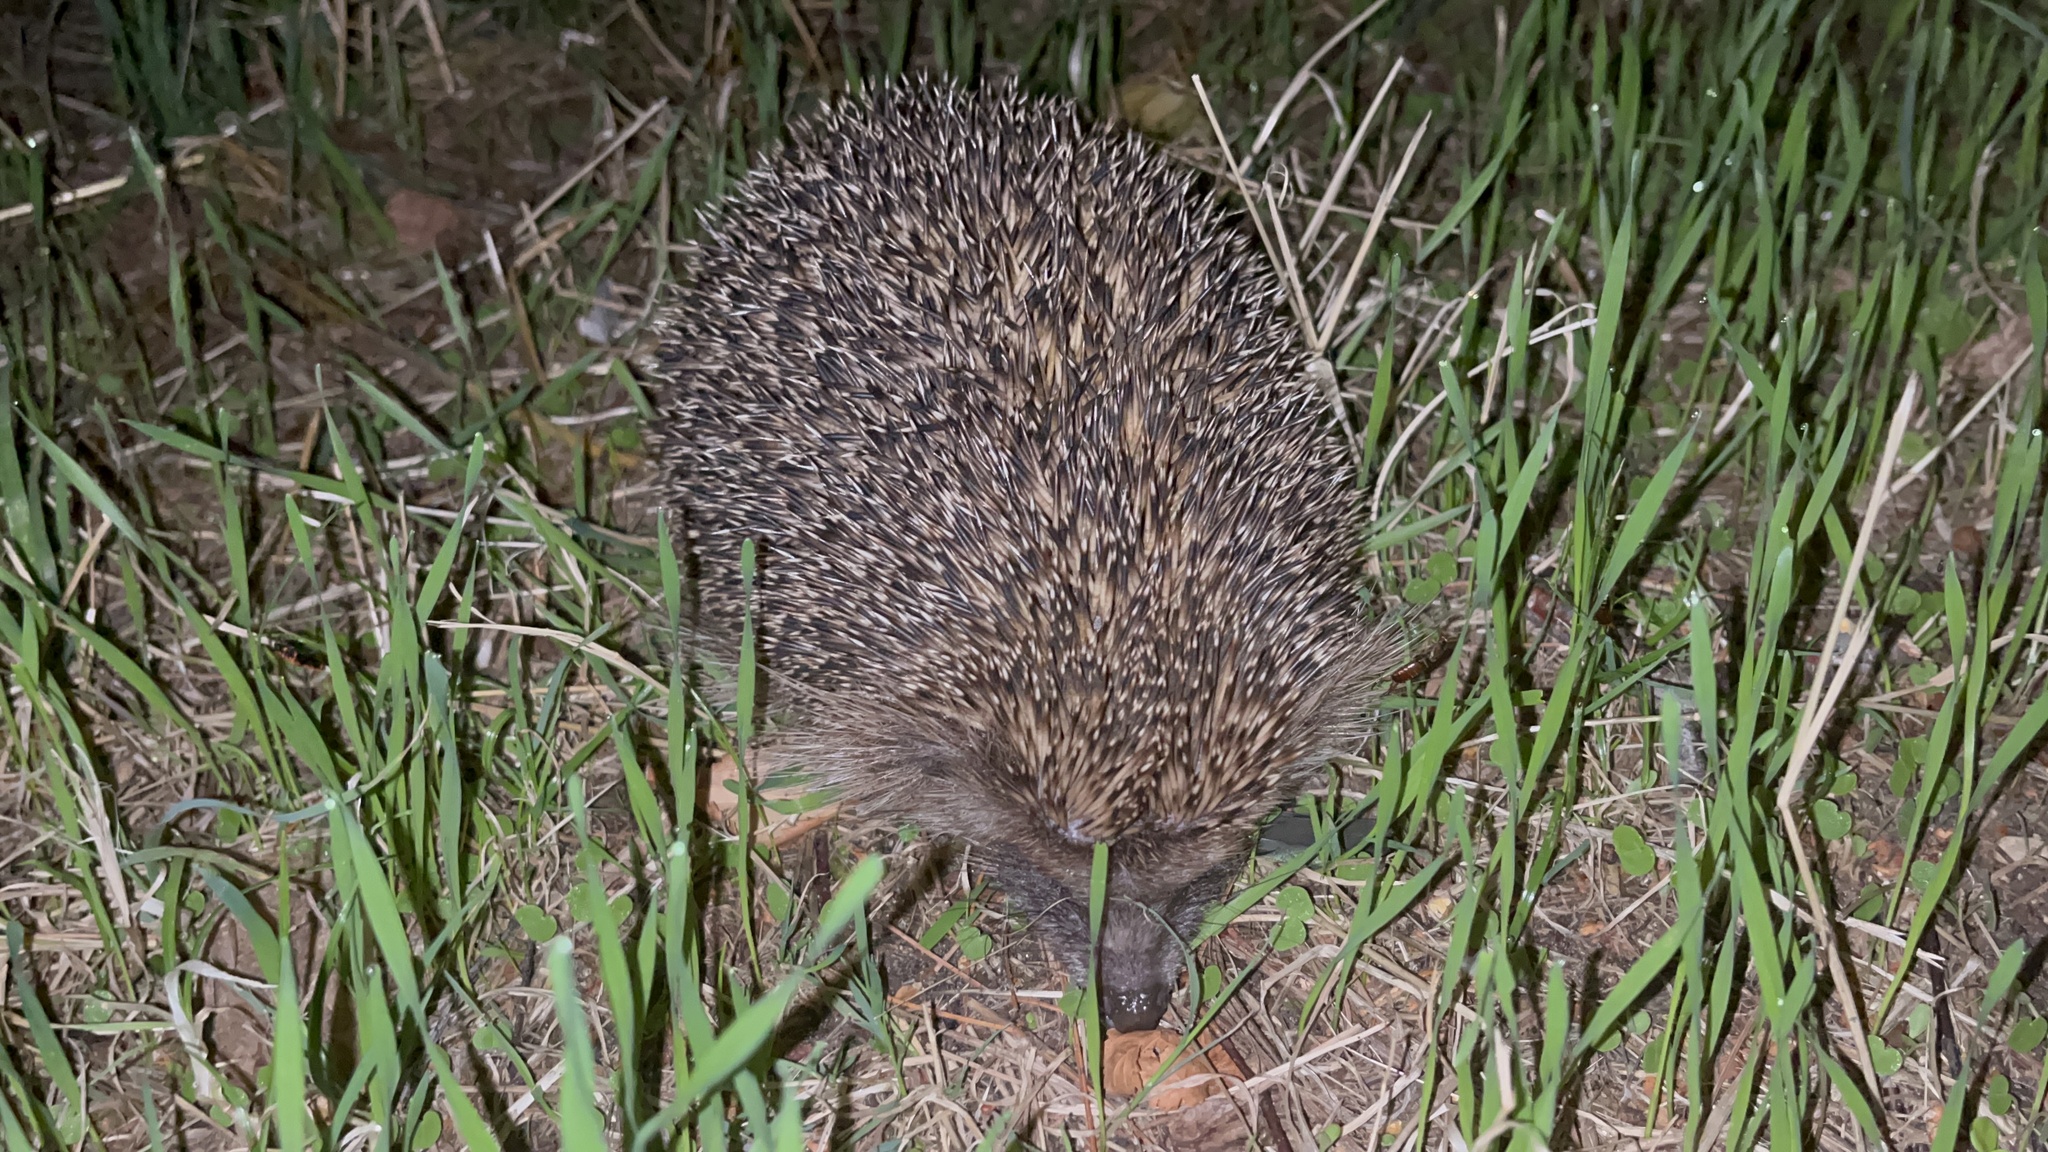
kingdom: Animalia
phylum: Chordata
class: Mammalia
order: Erinaceomorpha
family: Erinaceidae
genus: Erinaceus
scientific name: Erinaceus europaeus
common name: West european hedgehog
